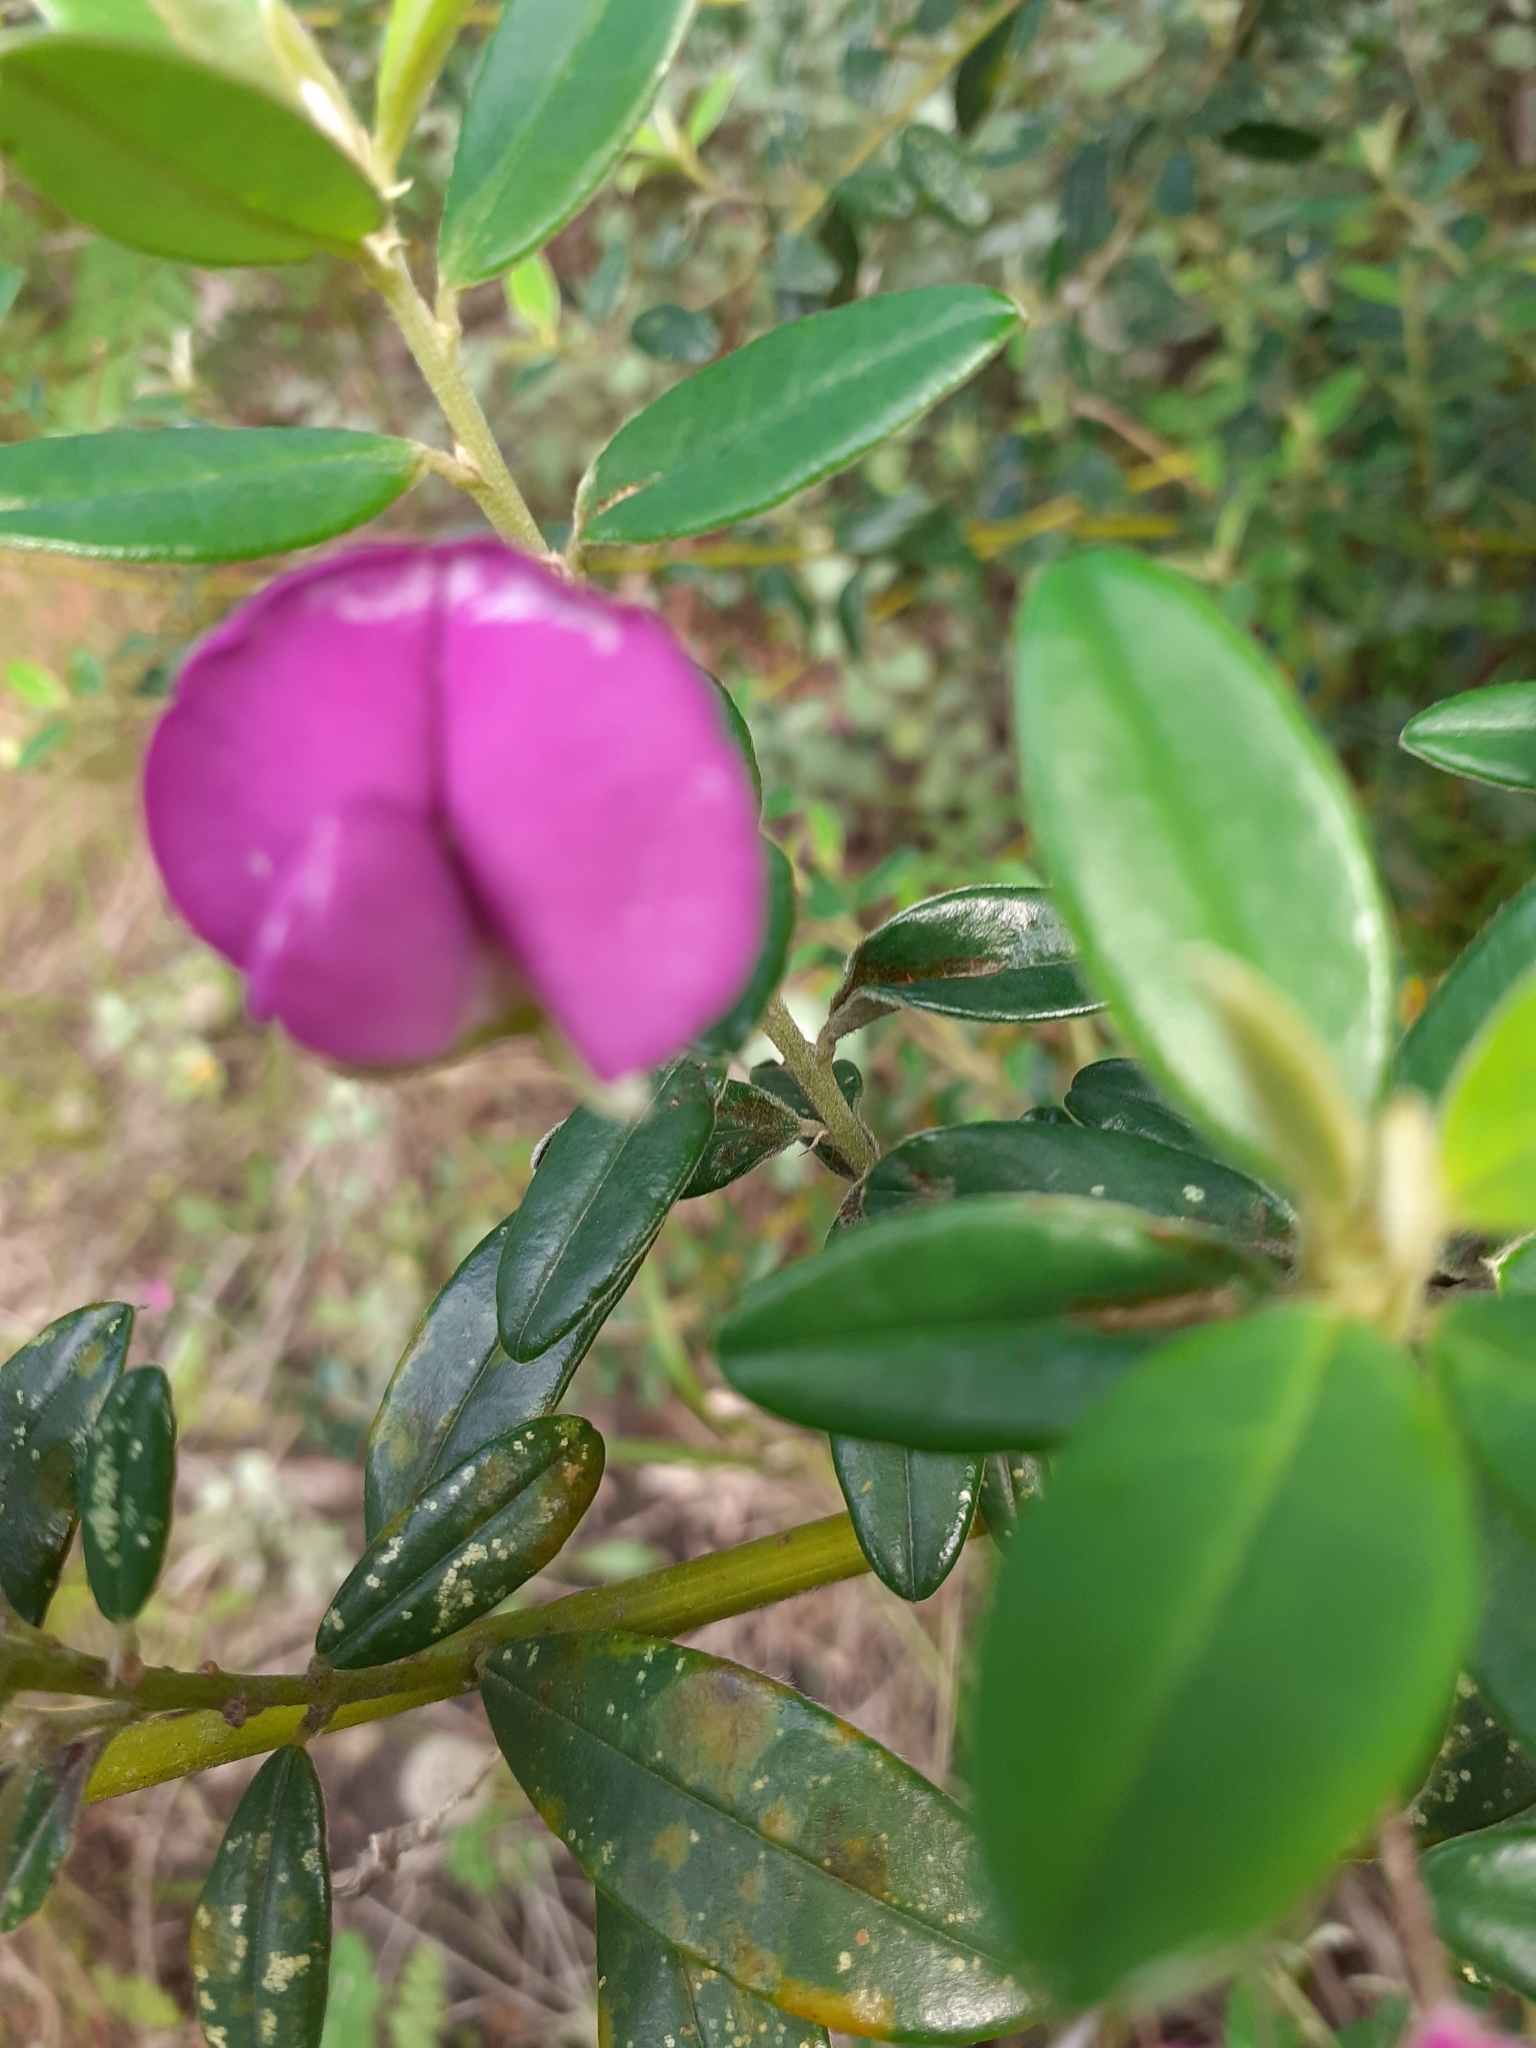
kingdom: Plantae
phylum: Tracheophyta
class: Magnoliopsida
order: Fabales
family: Fabaceae
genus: Podalyria
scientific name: Podalyria buxifolia
